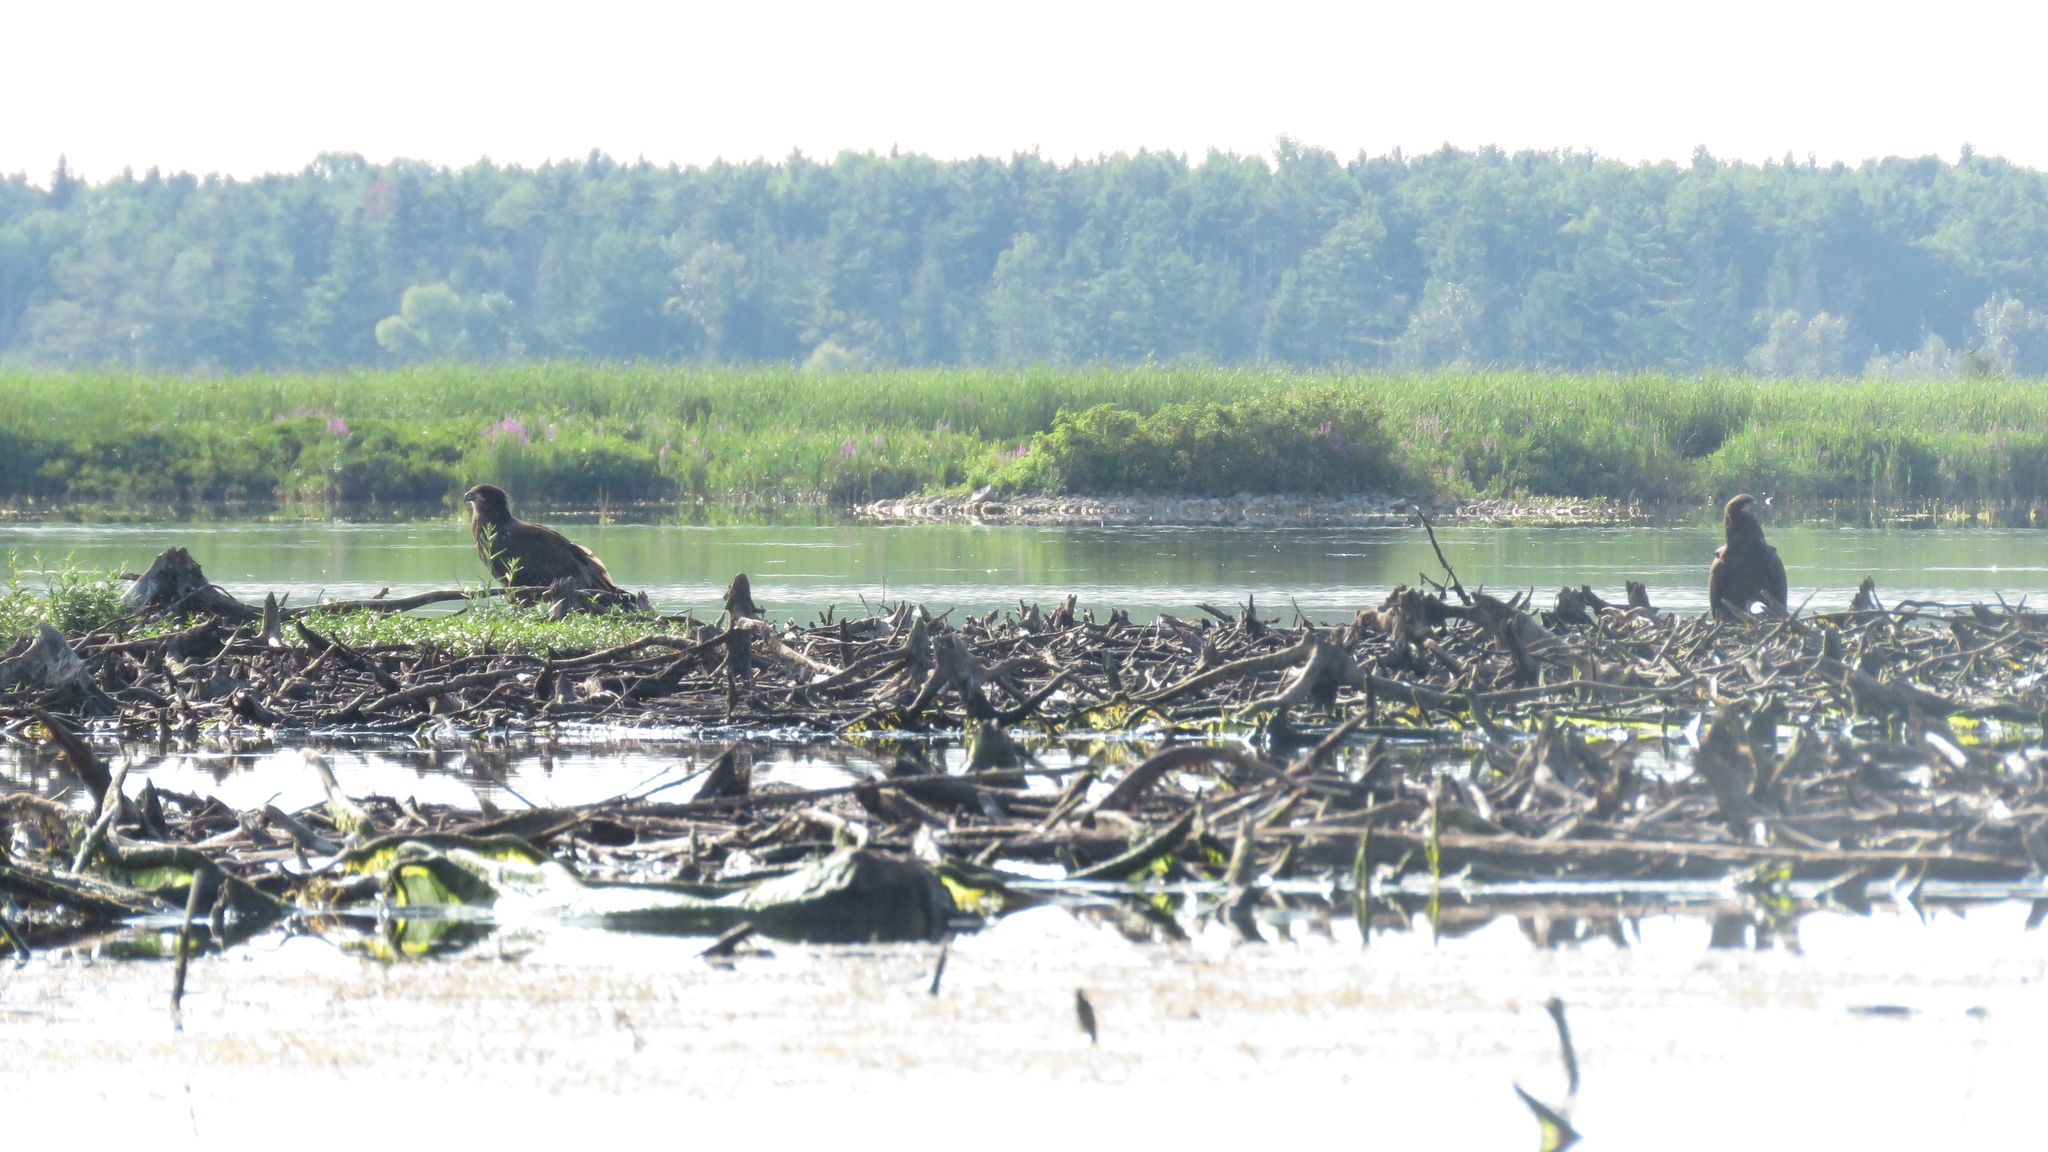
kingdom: Animalia
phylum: Chordata
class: Aves
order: Accipitriformes
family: Accipitridae
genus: Haliaeetus
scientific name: Haliaeetus leucocephalus
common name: Bald eagle
